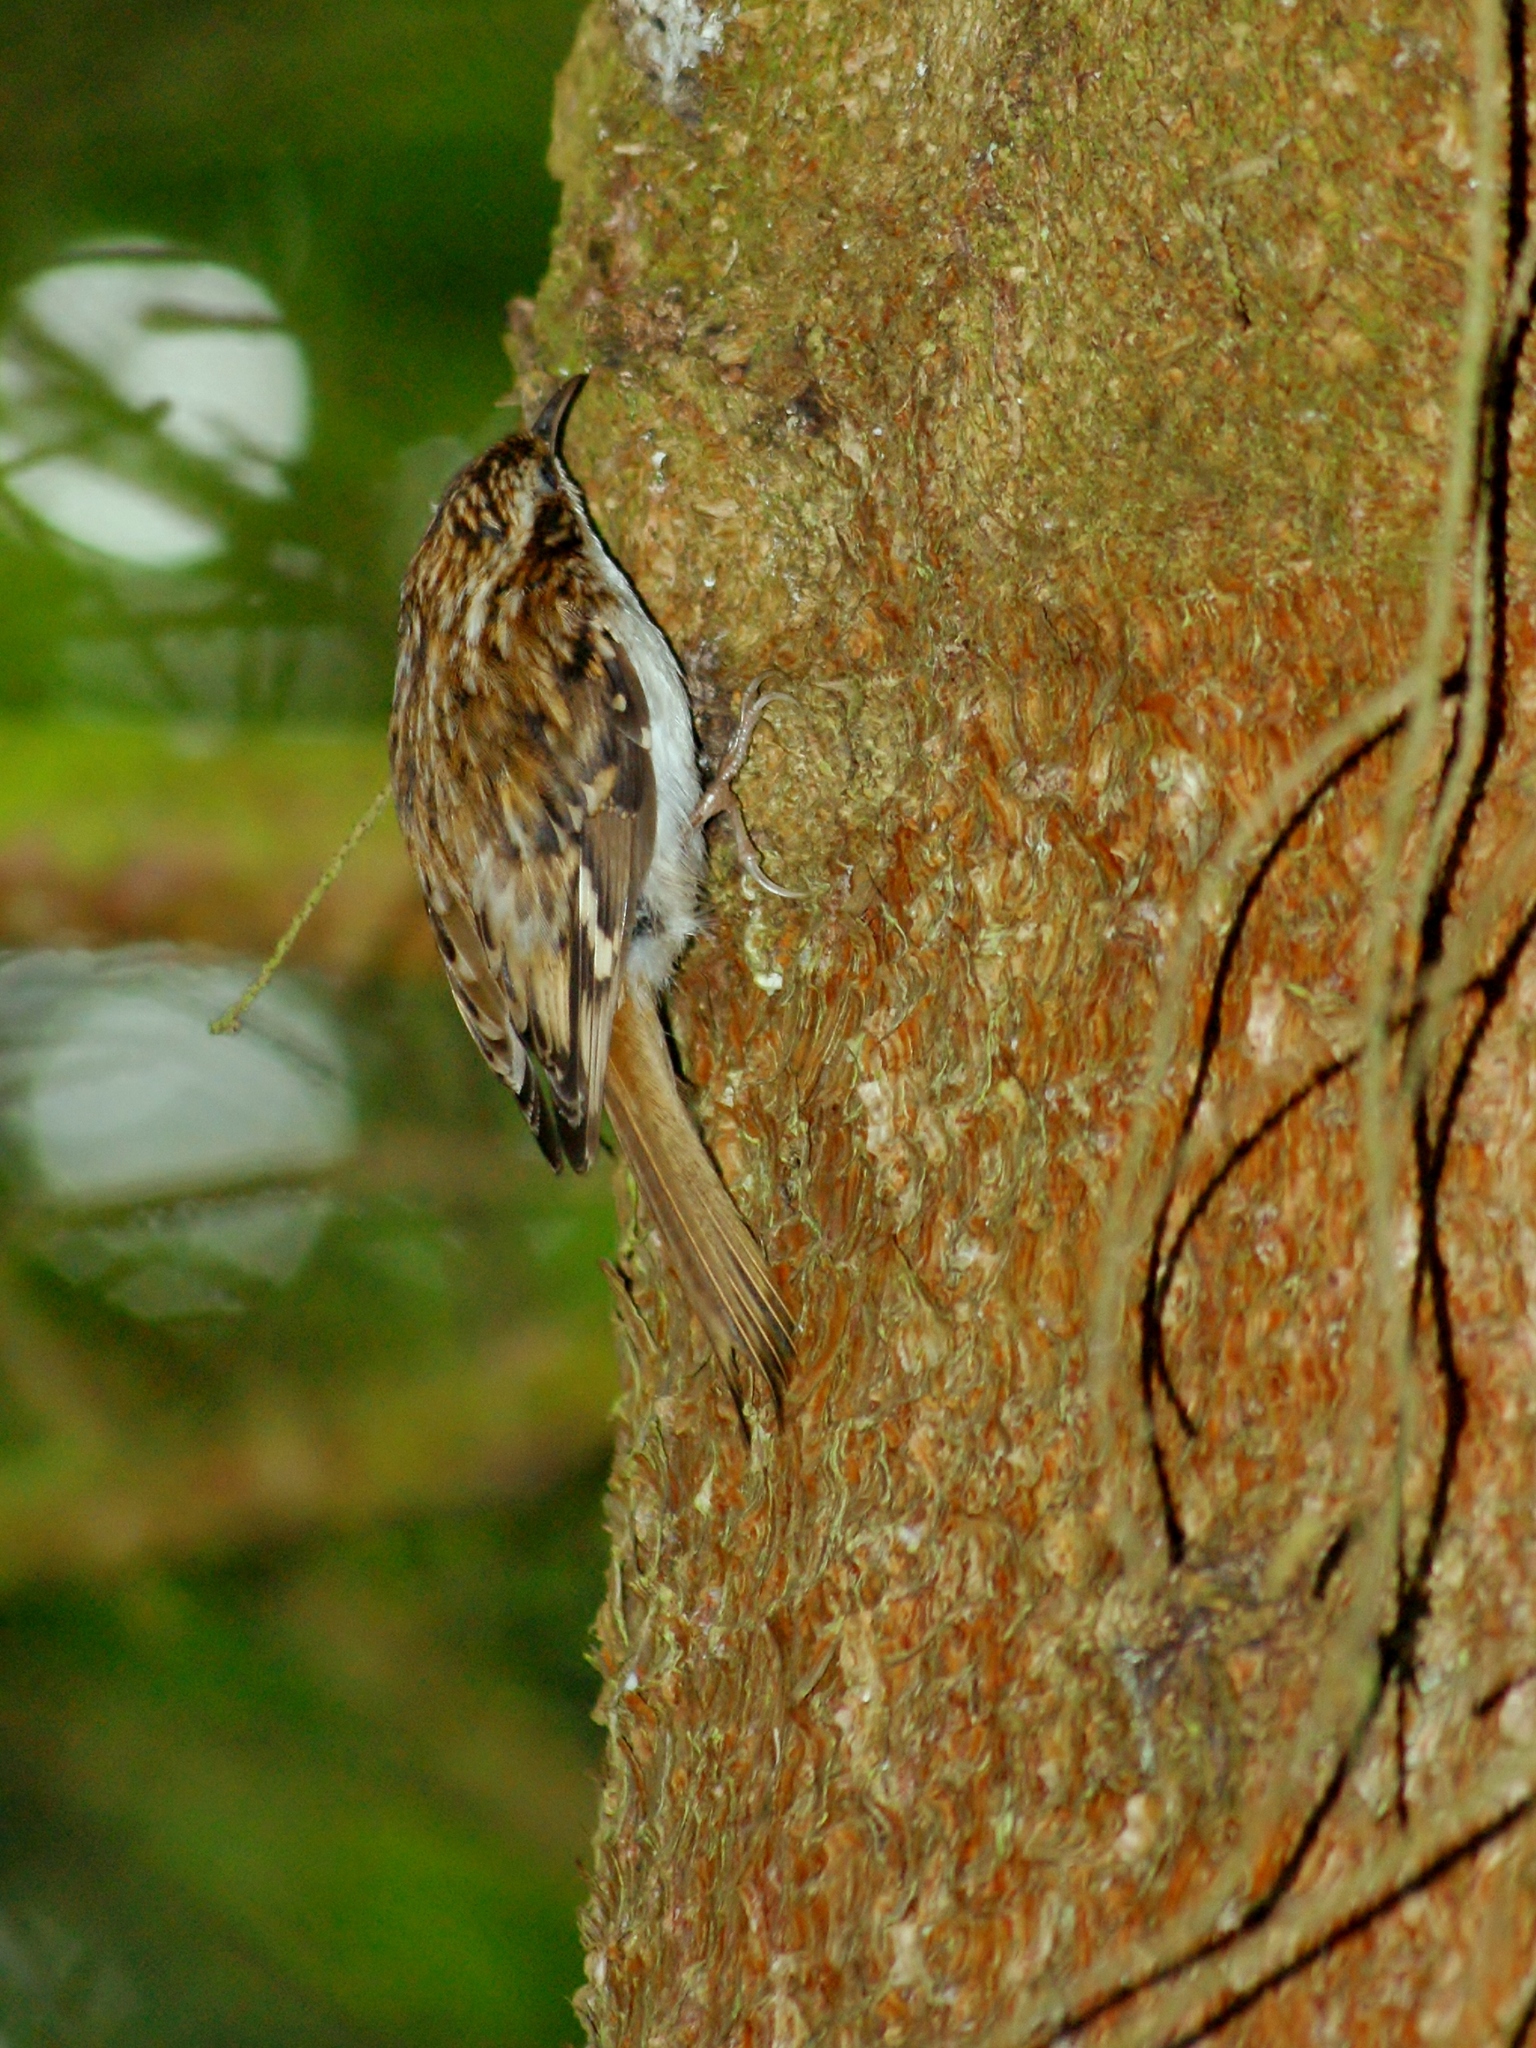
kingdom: Animalia
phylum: Chordata
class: Aves
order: Passeriformes
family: Certhiidae
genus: Certhia
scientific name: Certhia familiaris
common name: Eurasian treecreeper
